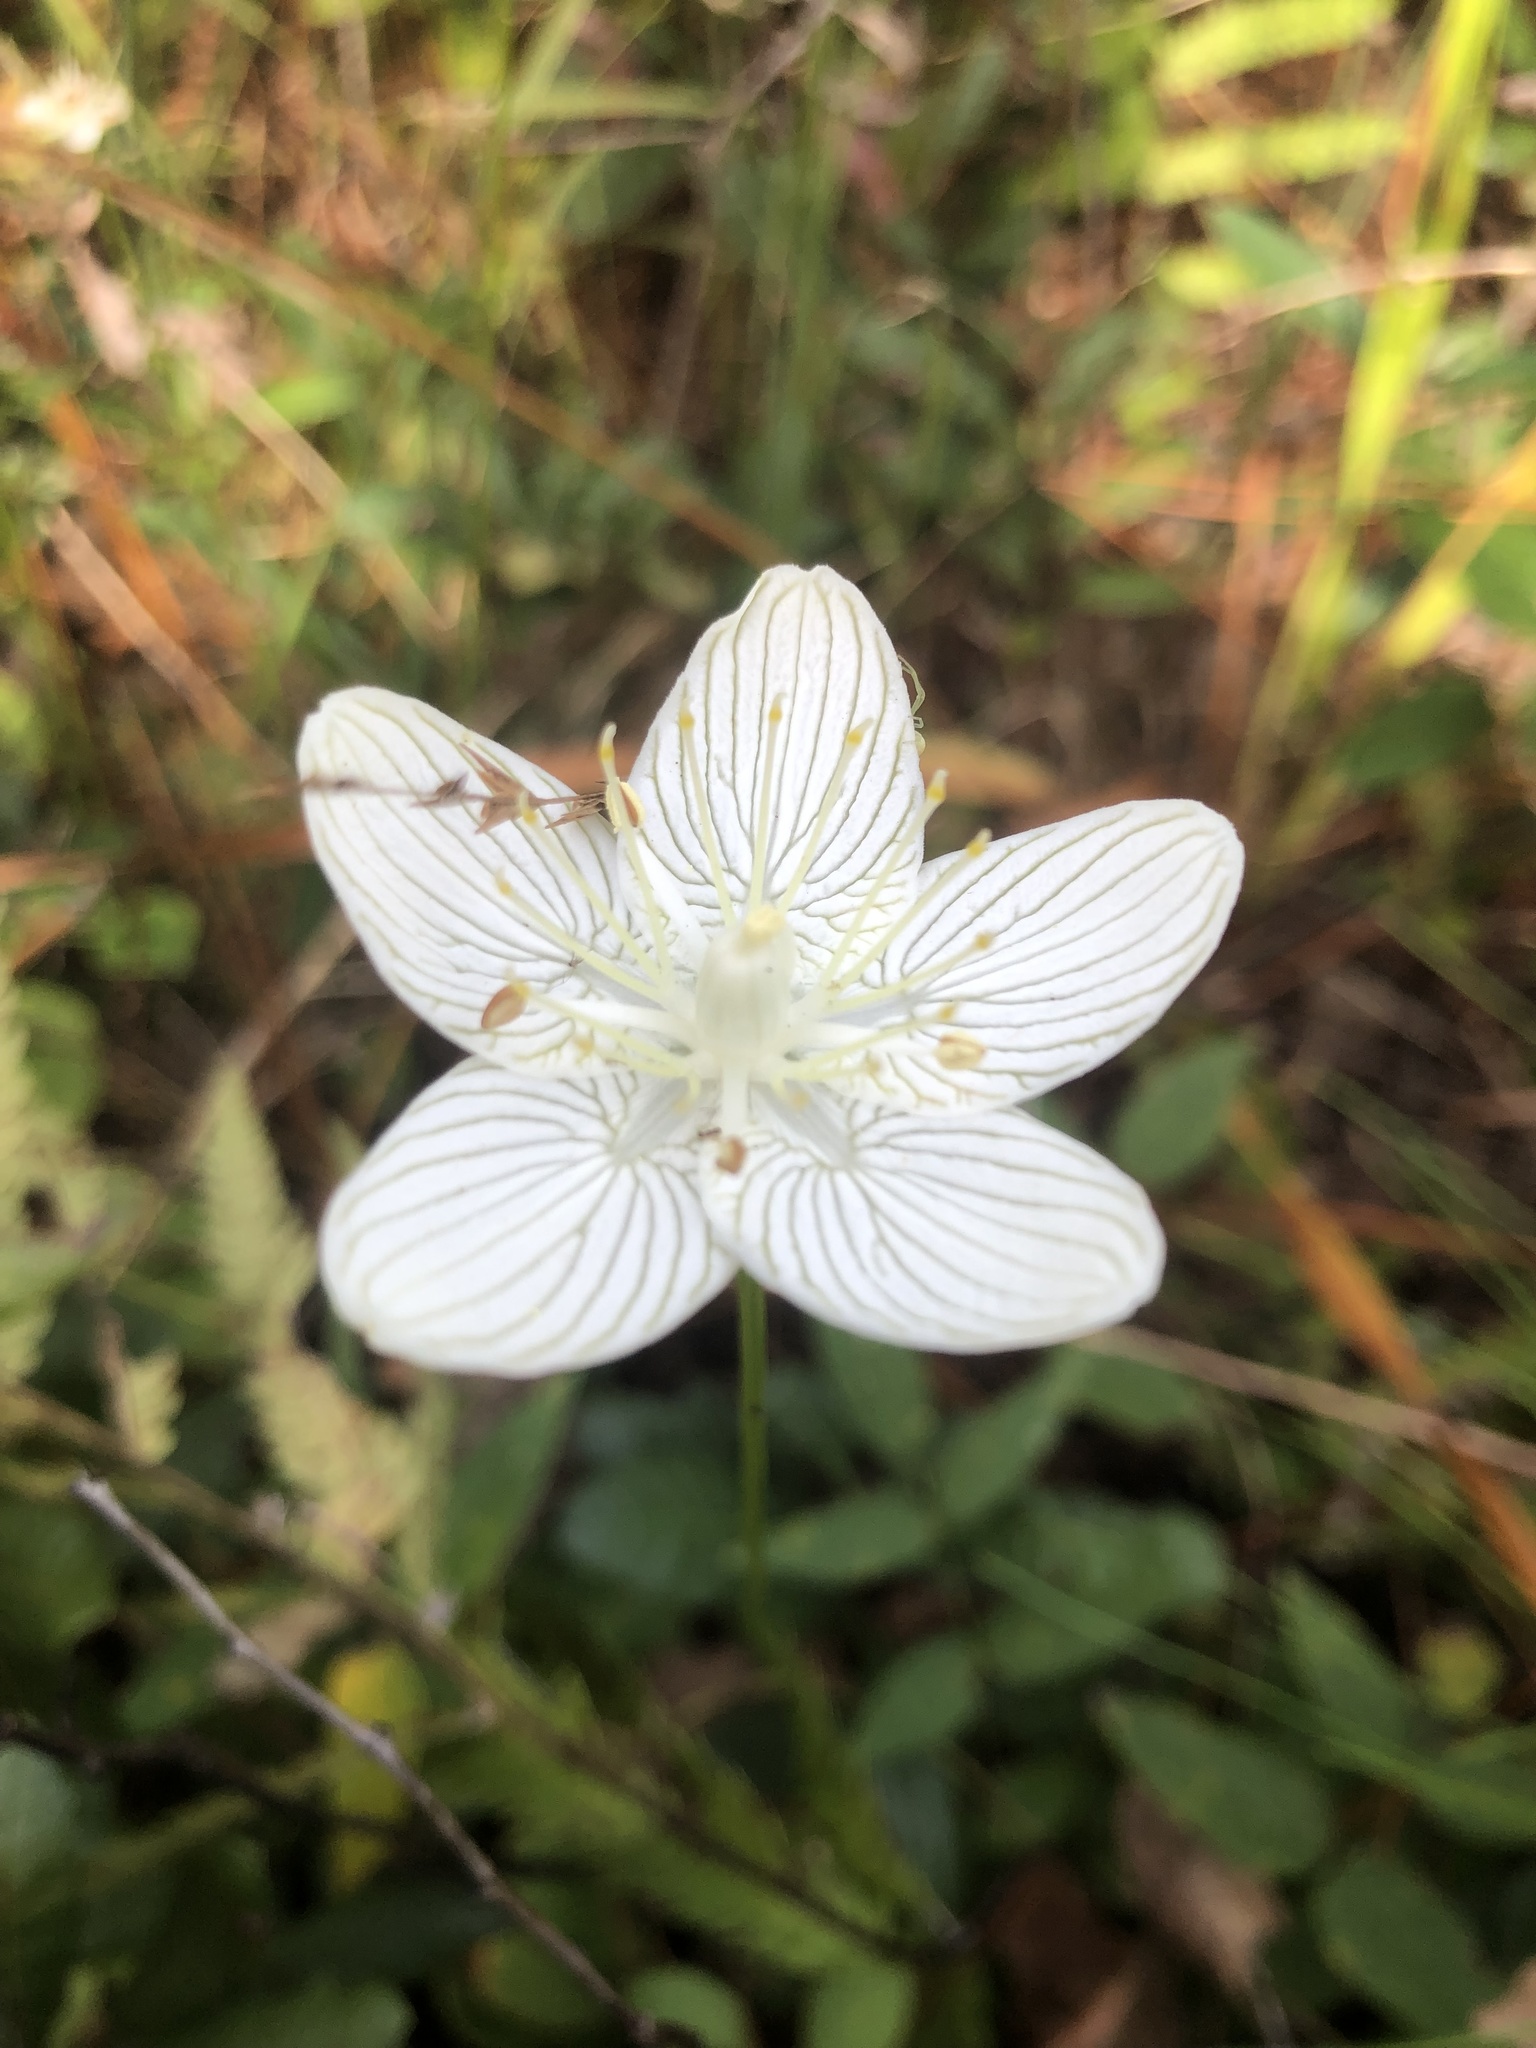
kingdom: Plantae
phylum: Tracheophyta
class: Magnoliopsida
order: Celastrales
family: Parnassiaceae
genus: Parnassia
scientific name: Parnassia caroliniana
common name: Carolina grass of parnassus
